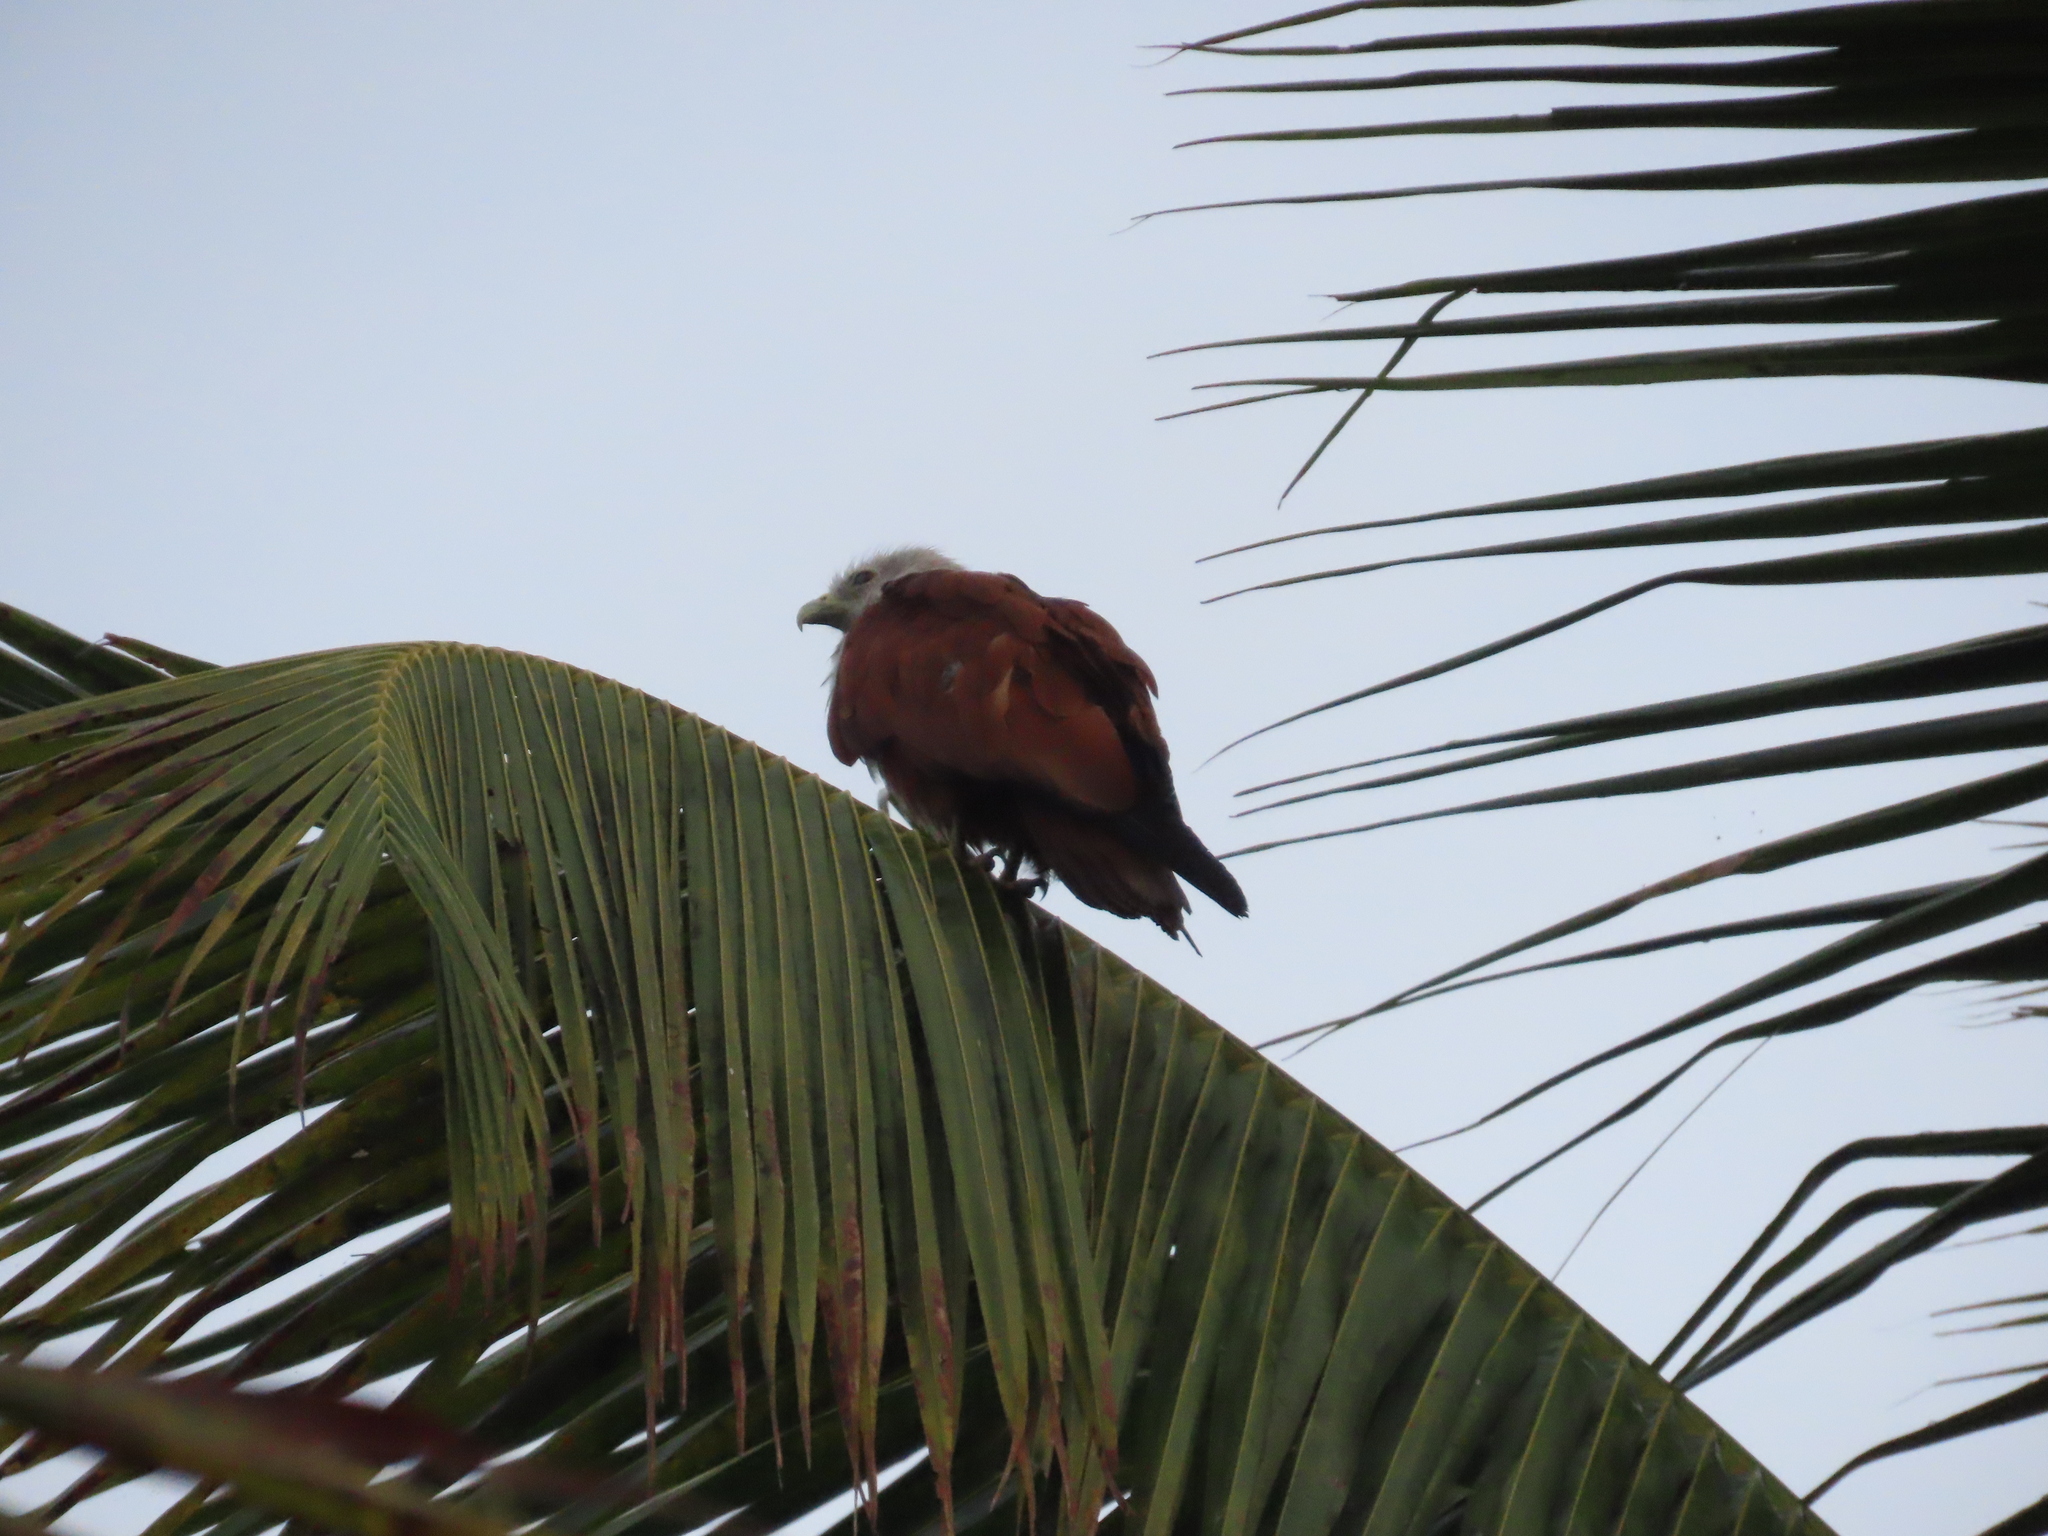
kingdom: Animalia
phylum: Chordata
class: Aves
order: Accipitriformes
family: Accipitridae
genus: Haliastur
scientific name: Haliastur indus
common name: Brahminy kite
